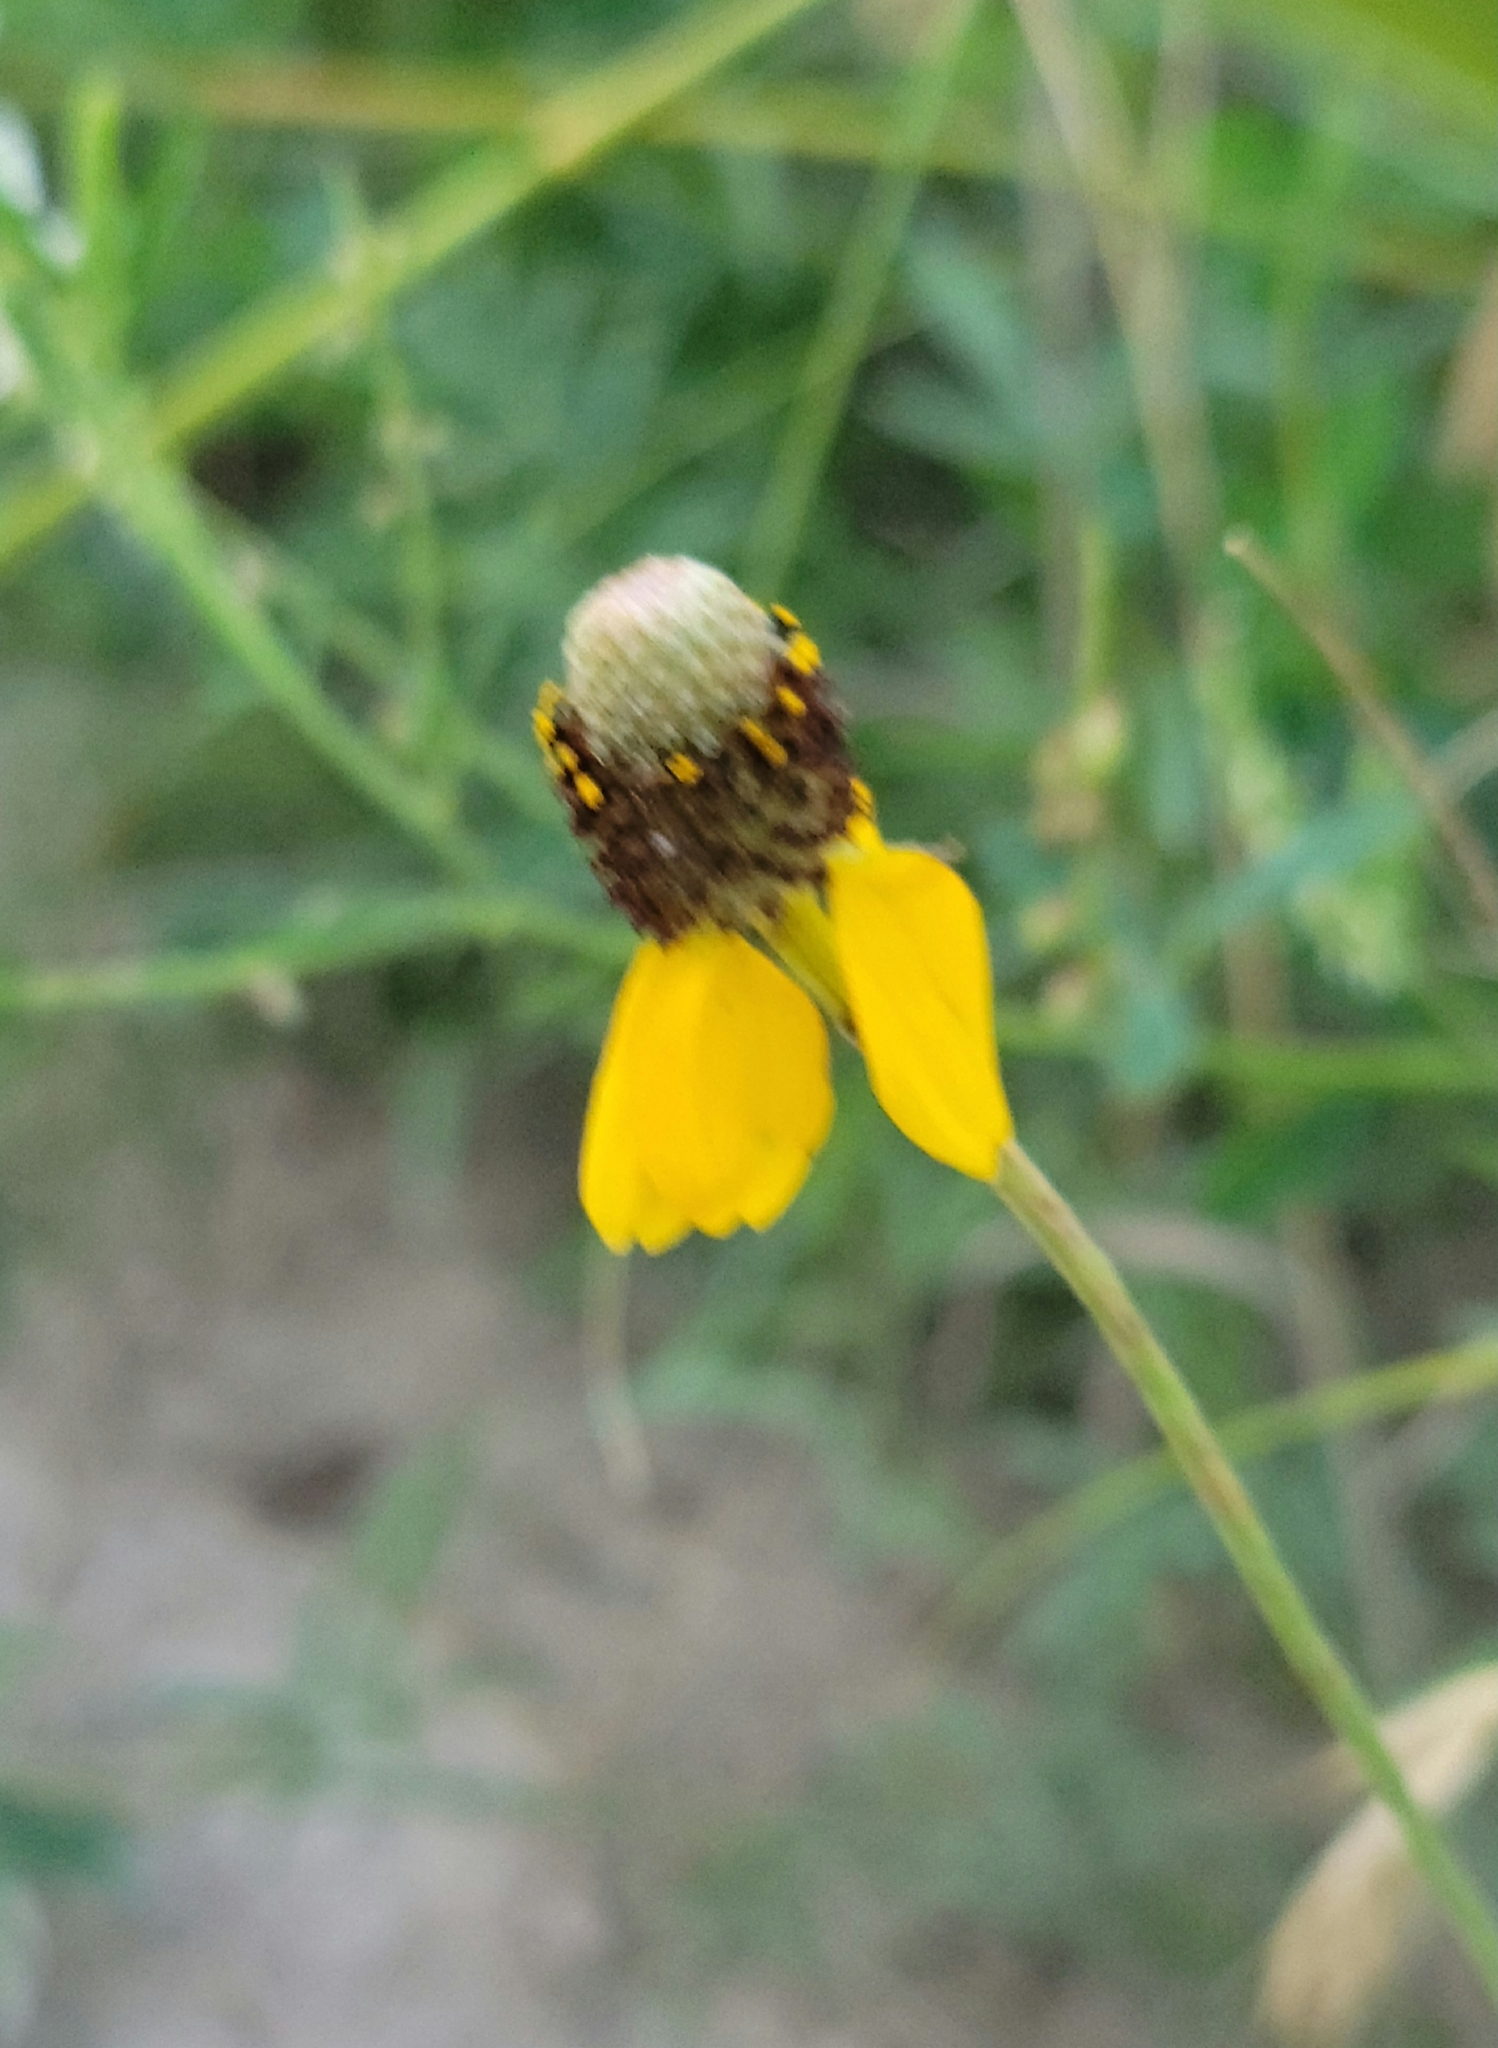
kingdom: Plantae
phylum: Tracheophyta
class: Magnoliopsida
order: Asterales
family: Asteraceae
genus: Ratibida
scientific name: Ratibida columnifera
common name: Prairie coneflower
